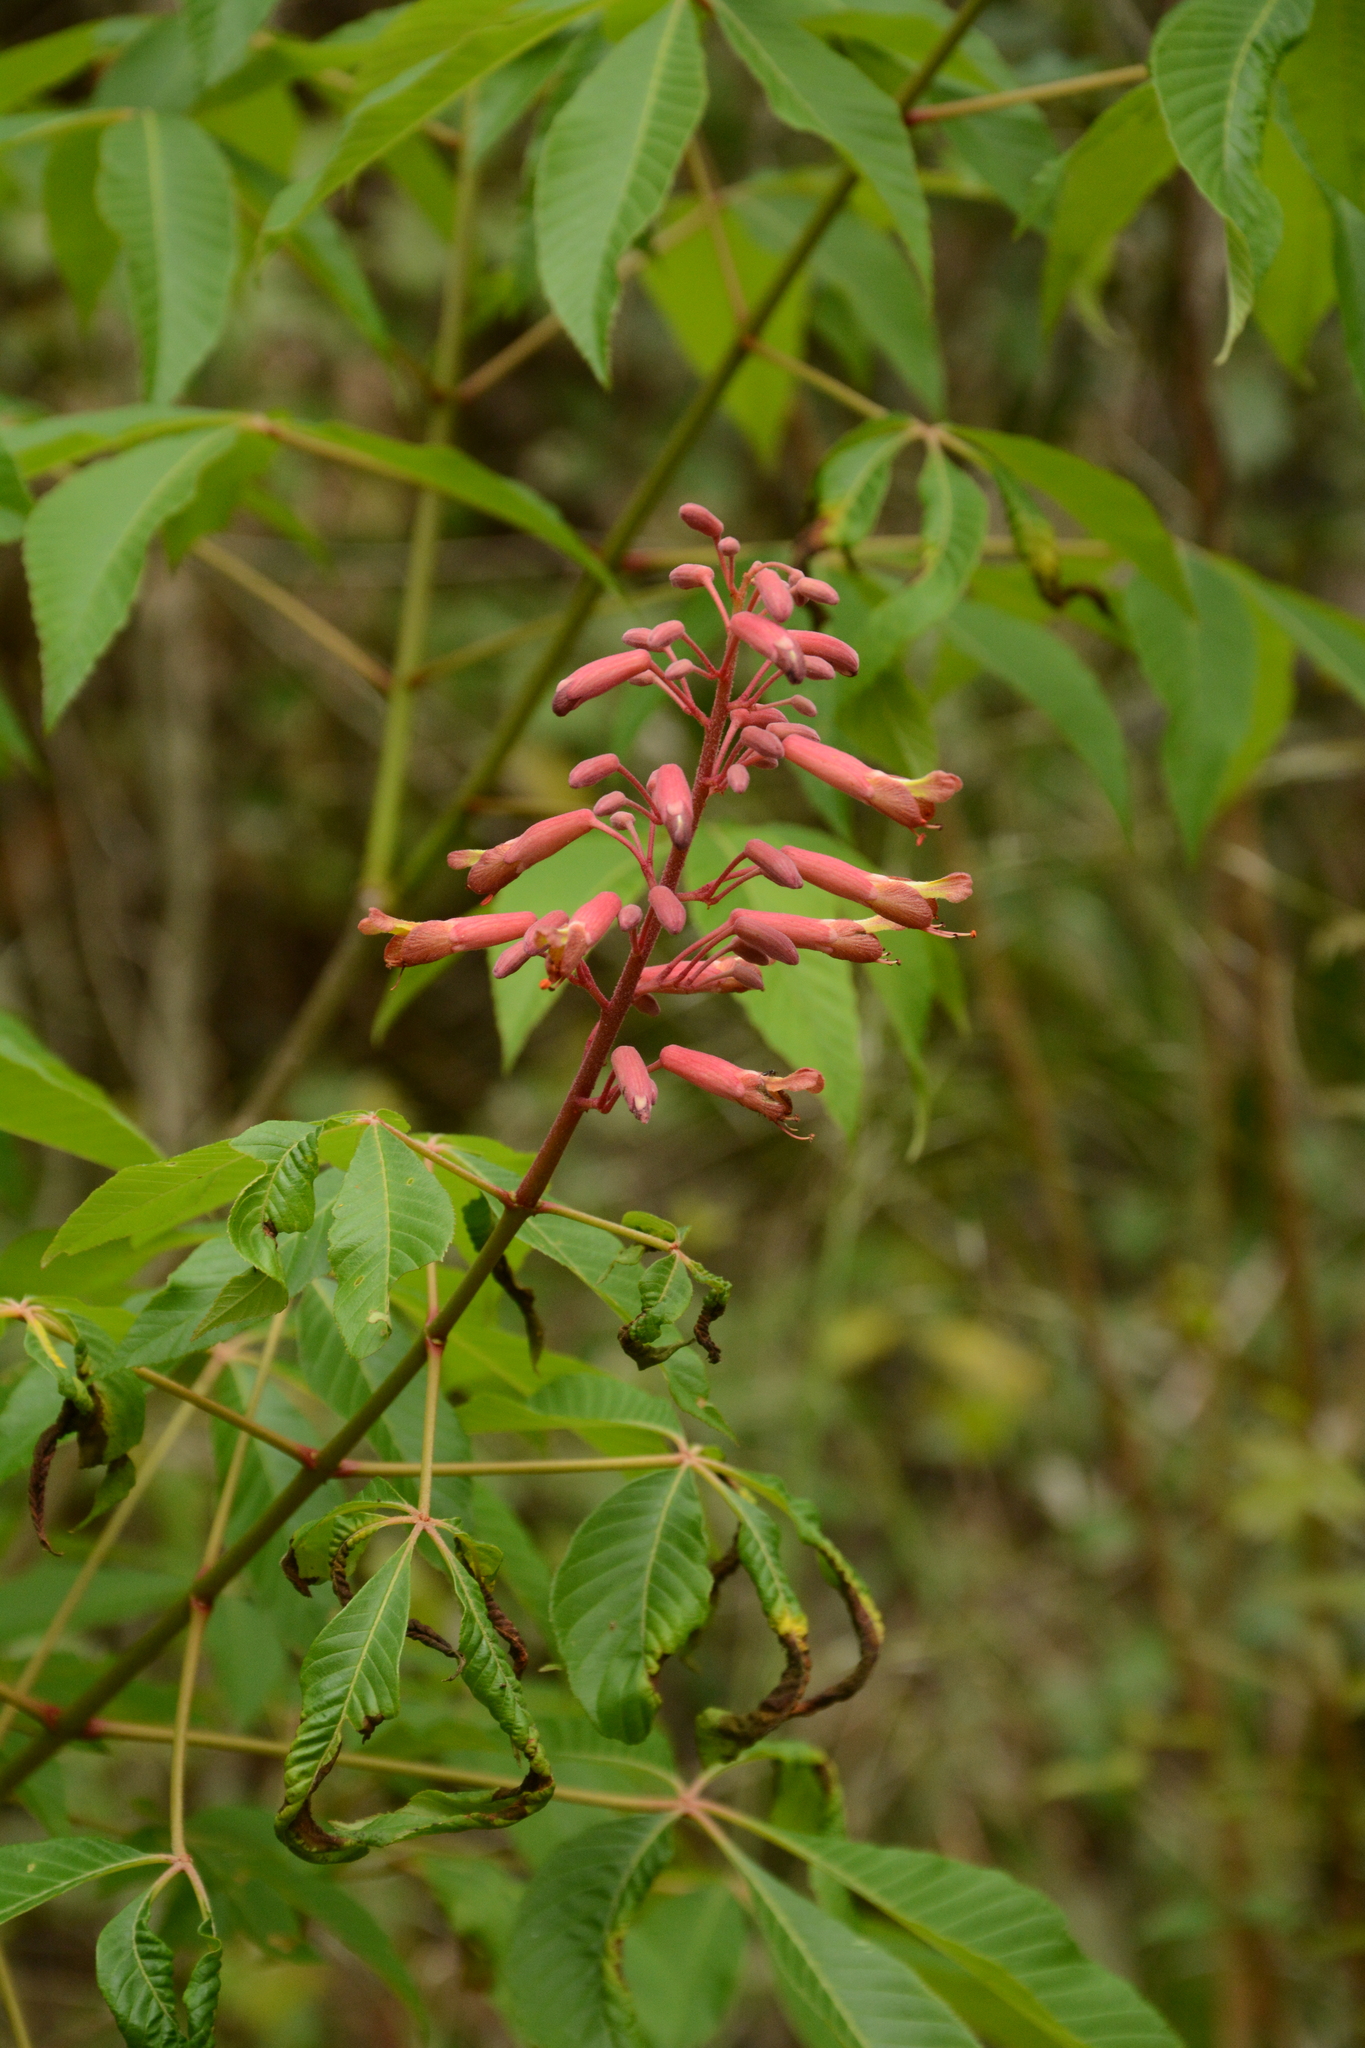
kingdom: Plantae
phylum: Tracheophyta
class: Magnoliopsida
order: Sapindales
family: Sapindaceae
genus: Aesculus
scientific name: Aesculus pavia
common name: Red buckeye
